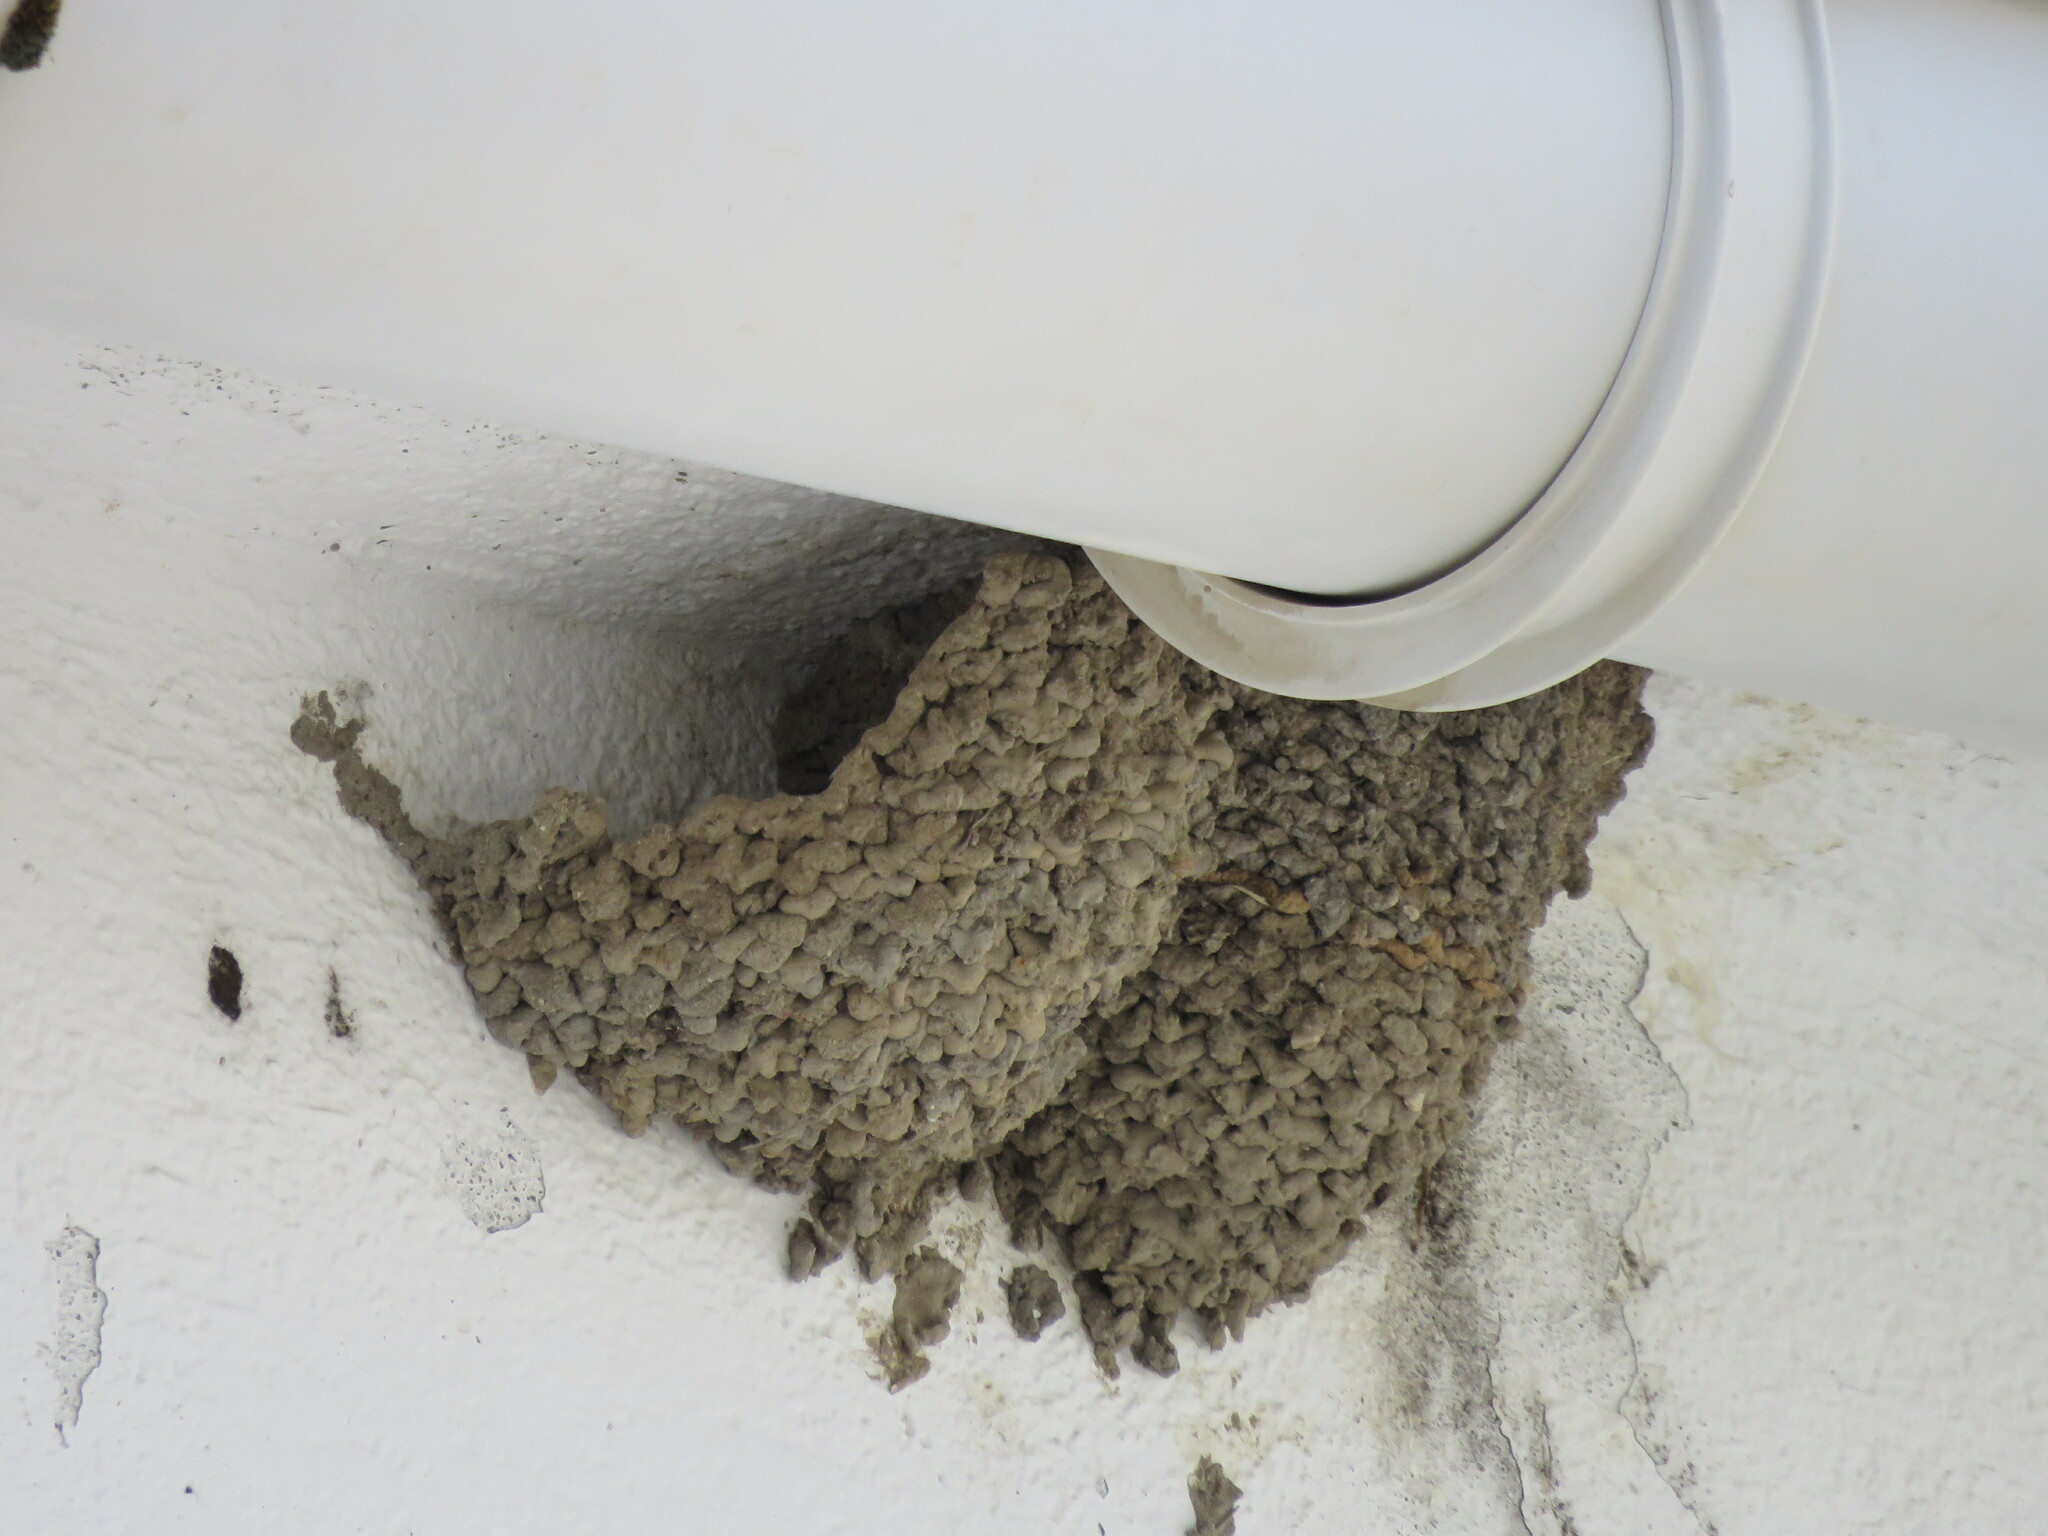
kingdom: Animalia
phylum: Chordata
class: Aves
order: Passeriformes
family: Hirundinidae
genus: Delichon
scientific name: Delichon urbicum
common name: Common house martin
